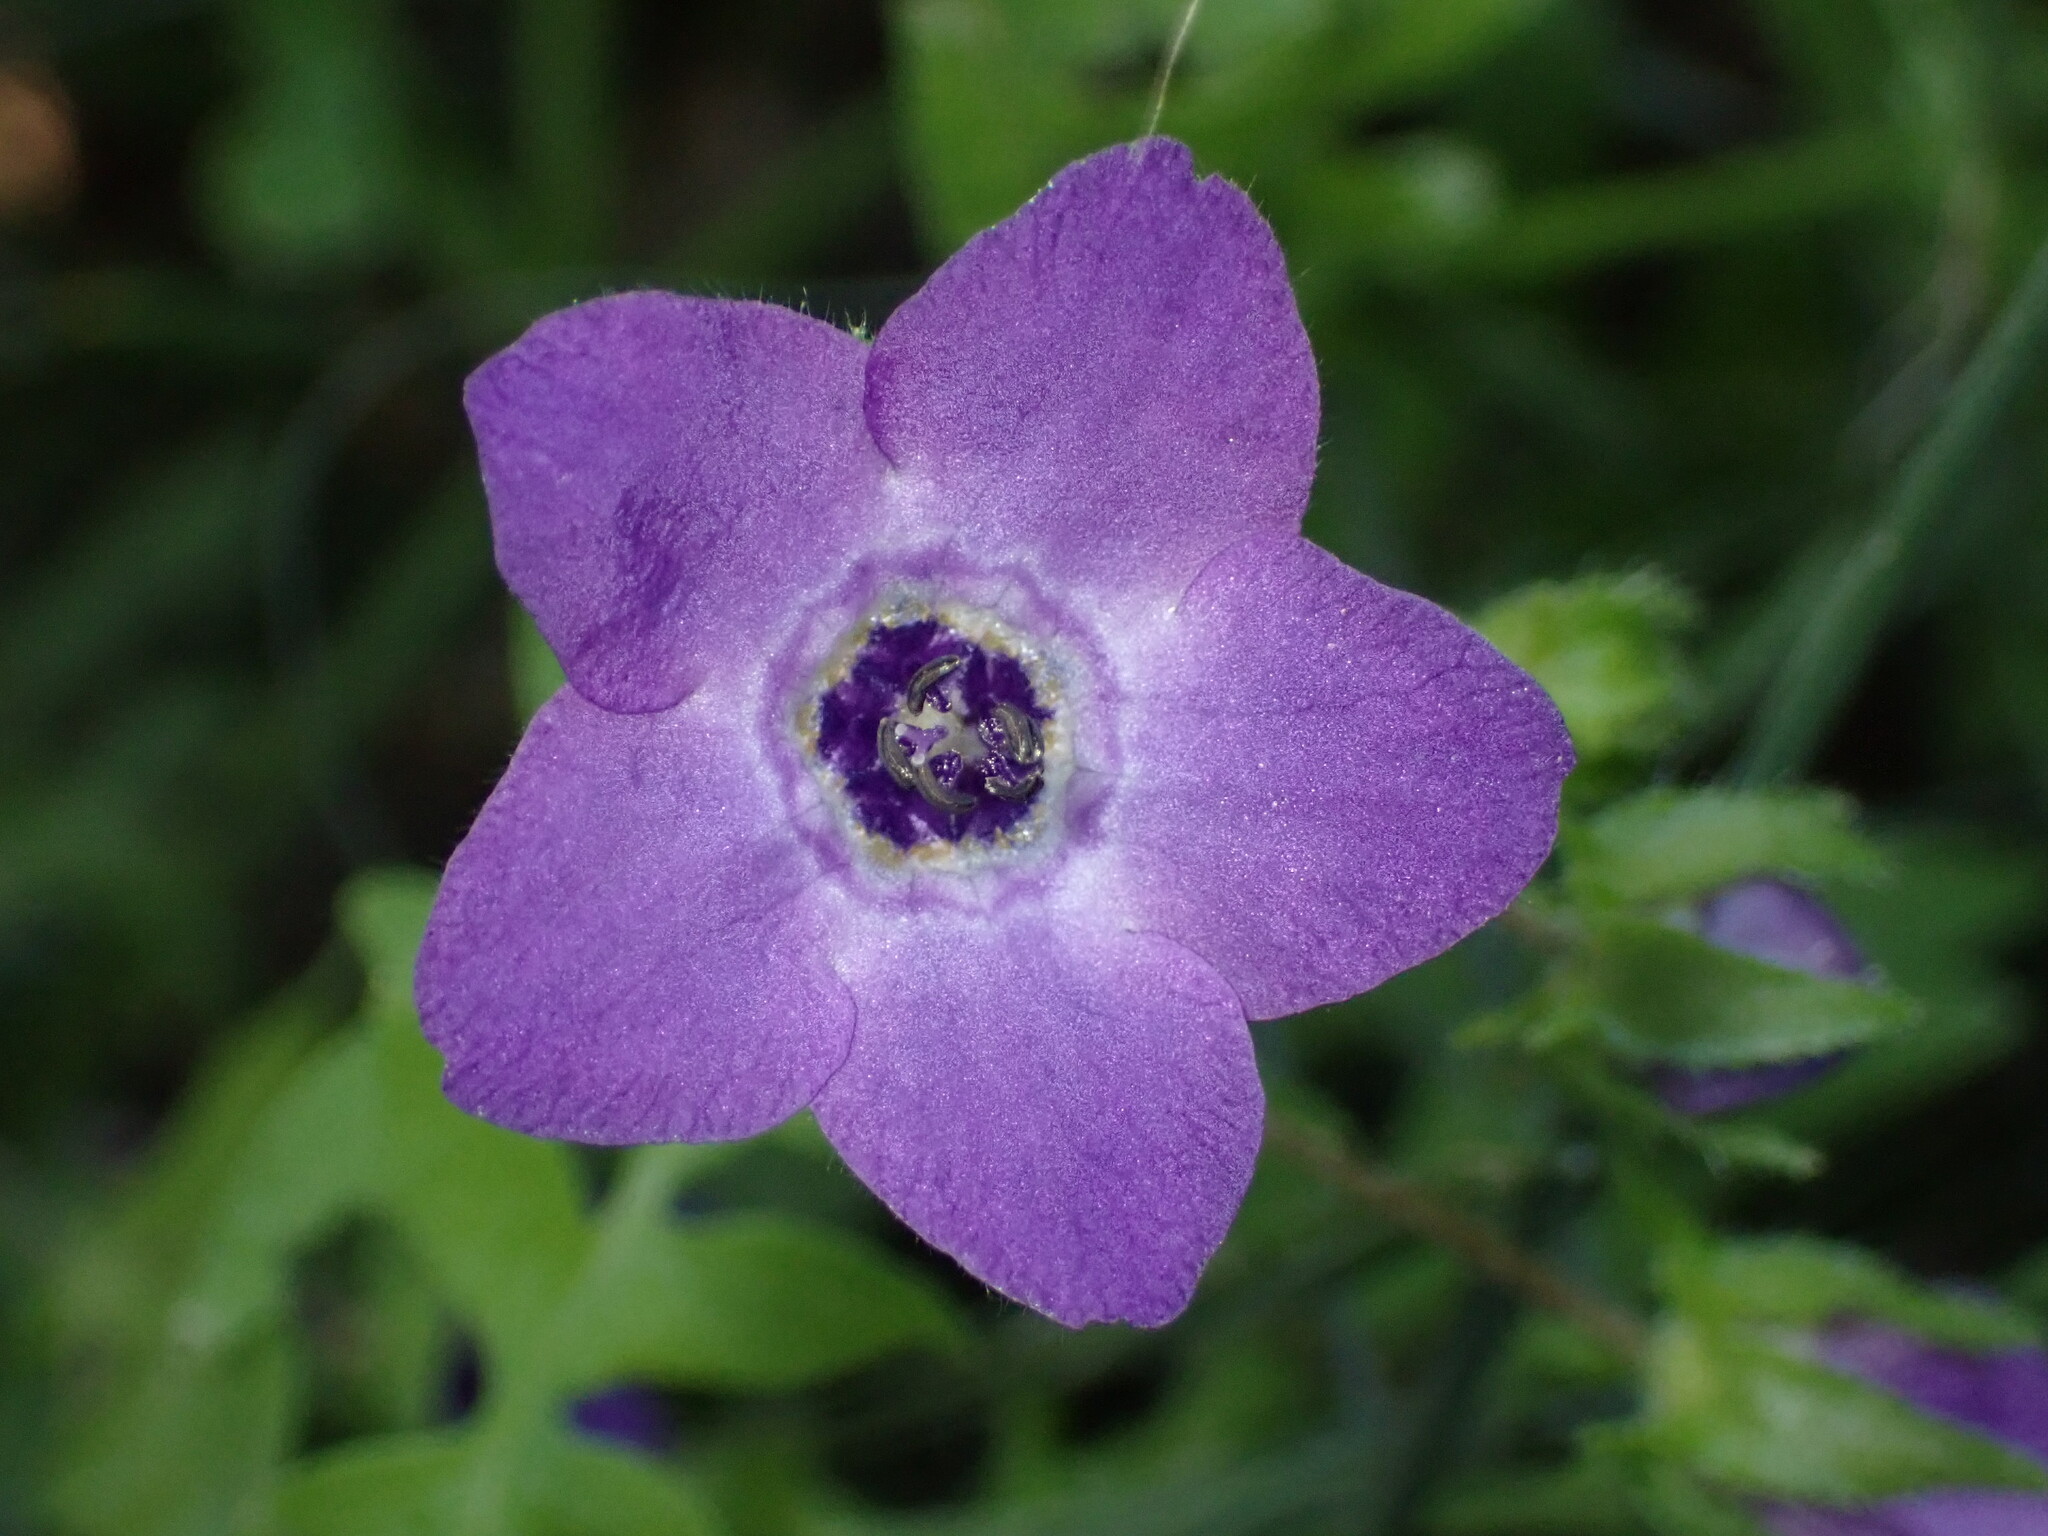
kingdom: Plantae
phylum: Tracheophyta
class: Magnoliopsida
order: Boraginales
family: Hydrophyllaceae
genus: Pholistoma
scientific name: Pholistoma auritum
